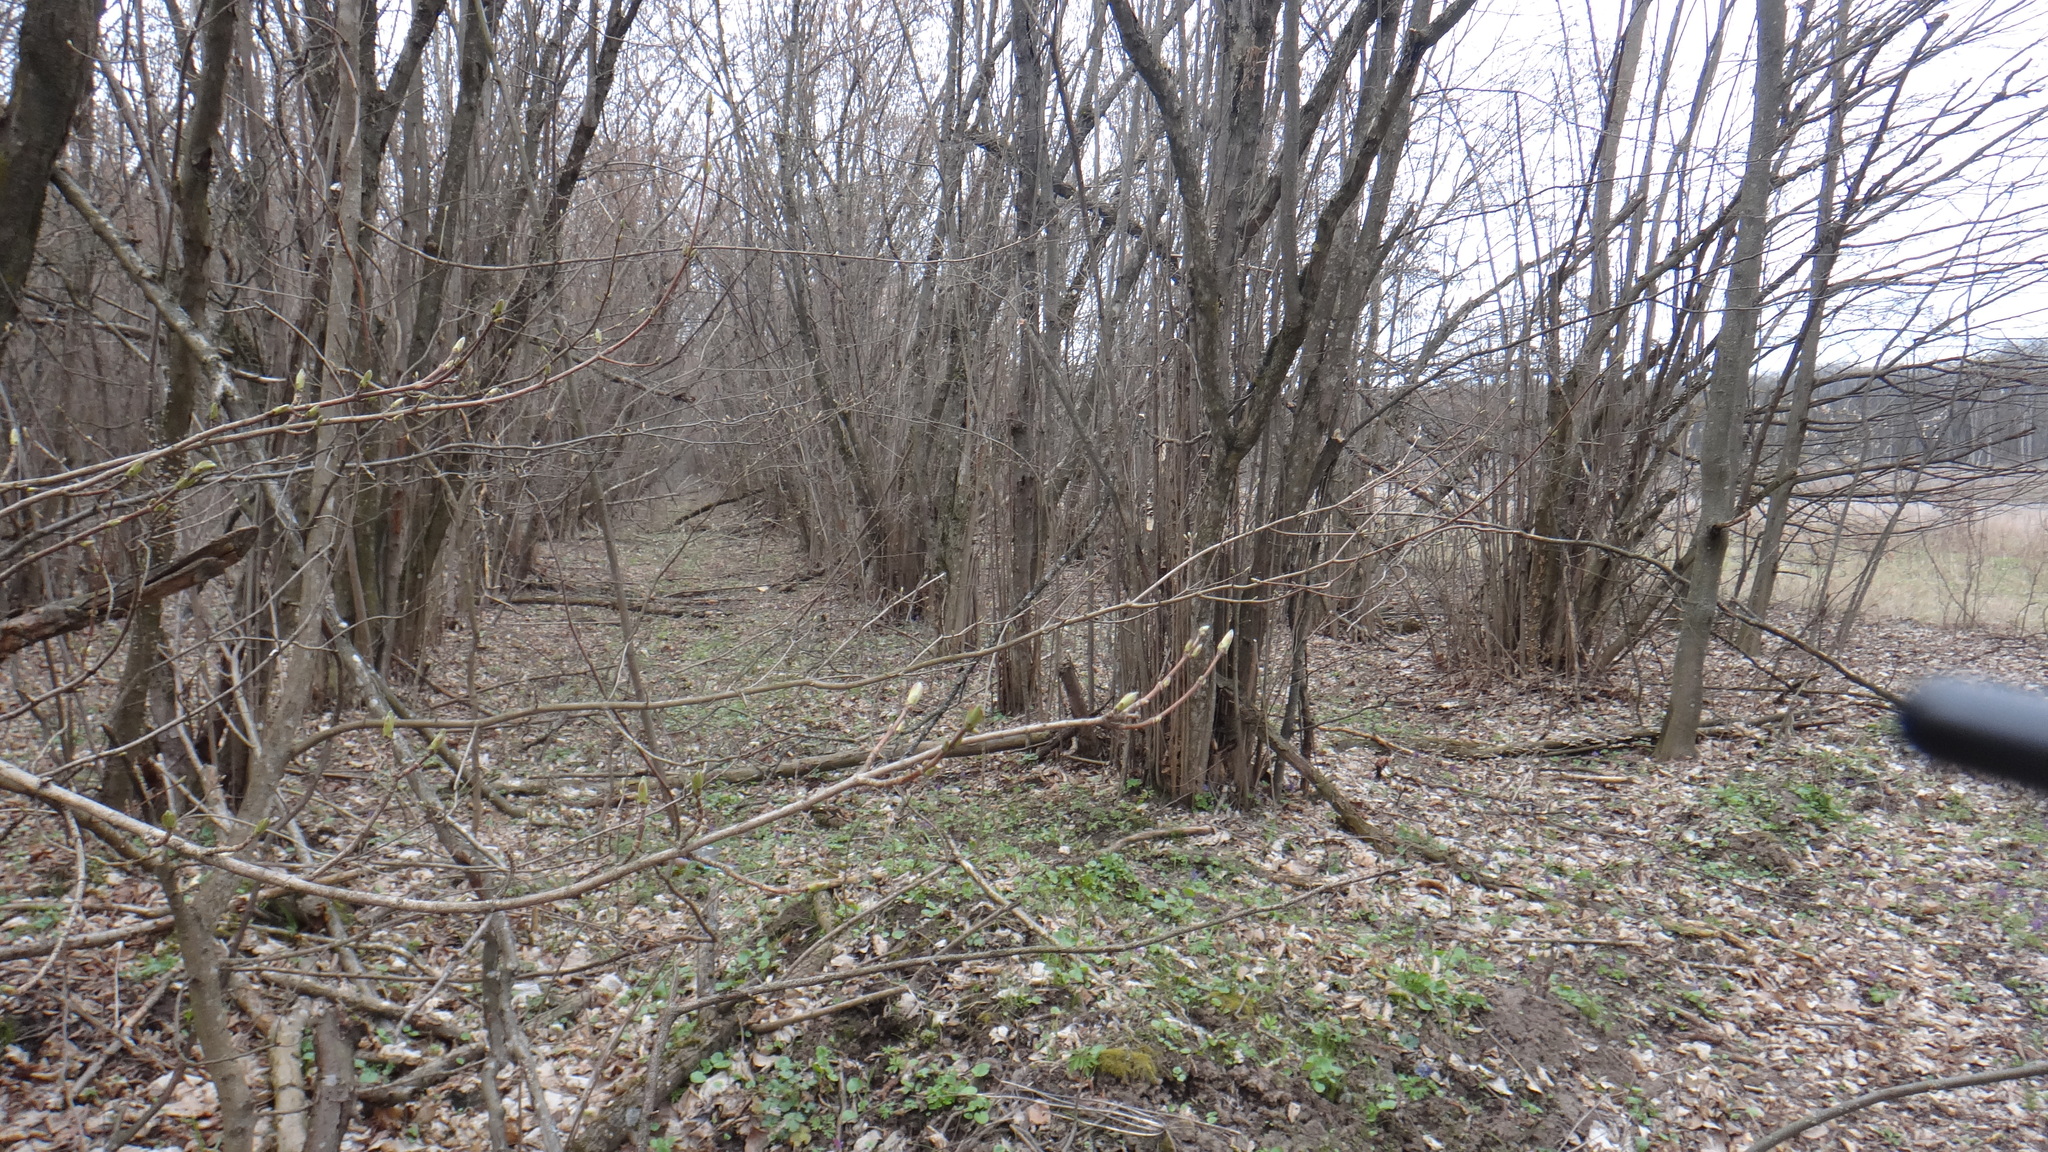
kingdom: Plantae
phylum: Tracheophyta
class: Magnoliopsida
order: Fagales
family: Betulaceae
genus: Corylus
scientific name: Corylus avellana
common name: European hazel
